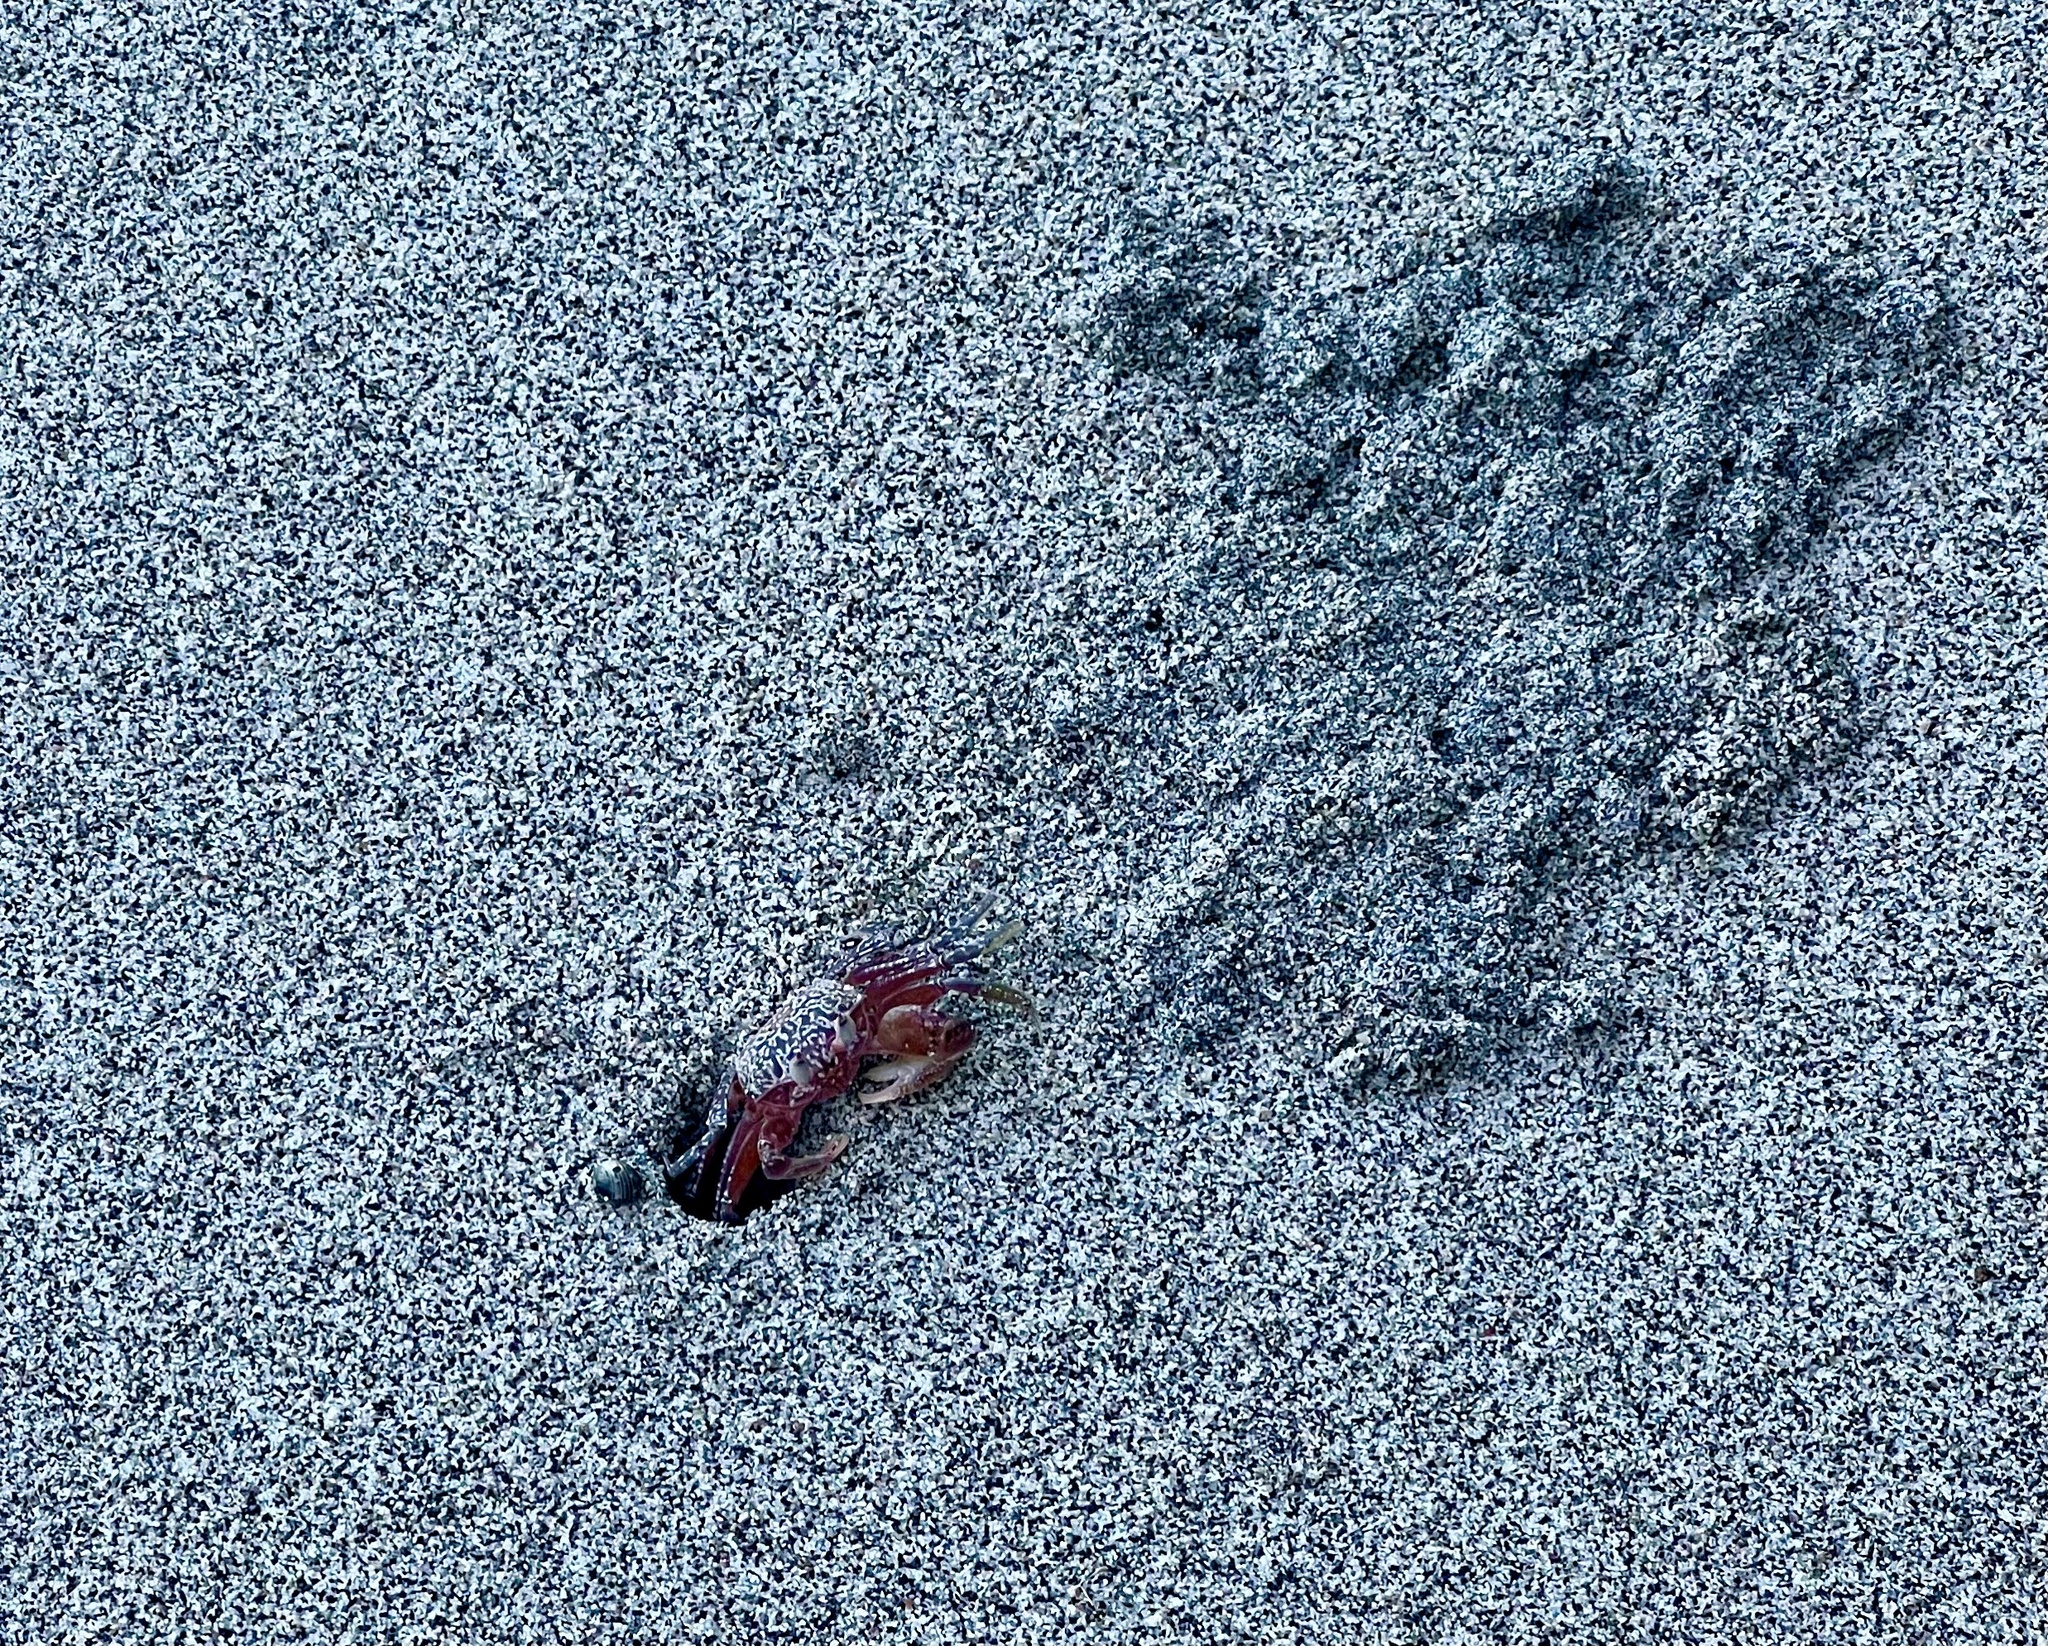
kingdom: Animalia
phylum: Arthropoda
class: Malacostraca
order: Decapoda
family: Ocypodidae
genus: Ocypode
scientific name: Ocypode gaudichaudii
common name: Pacific ghost crab
